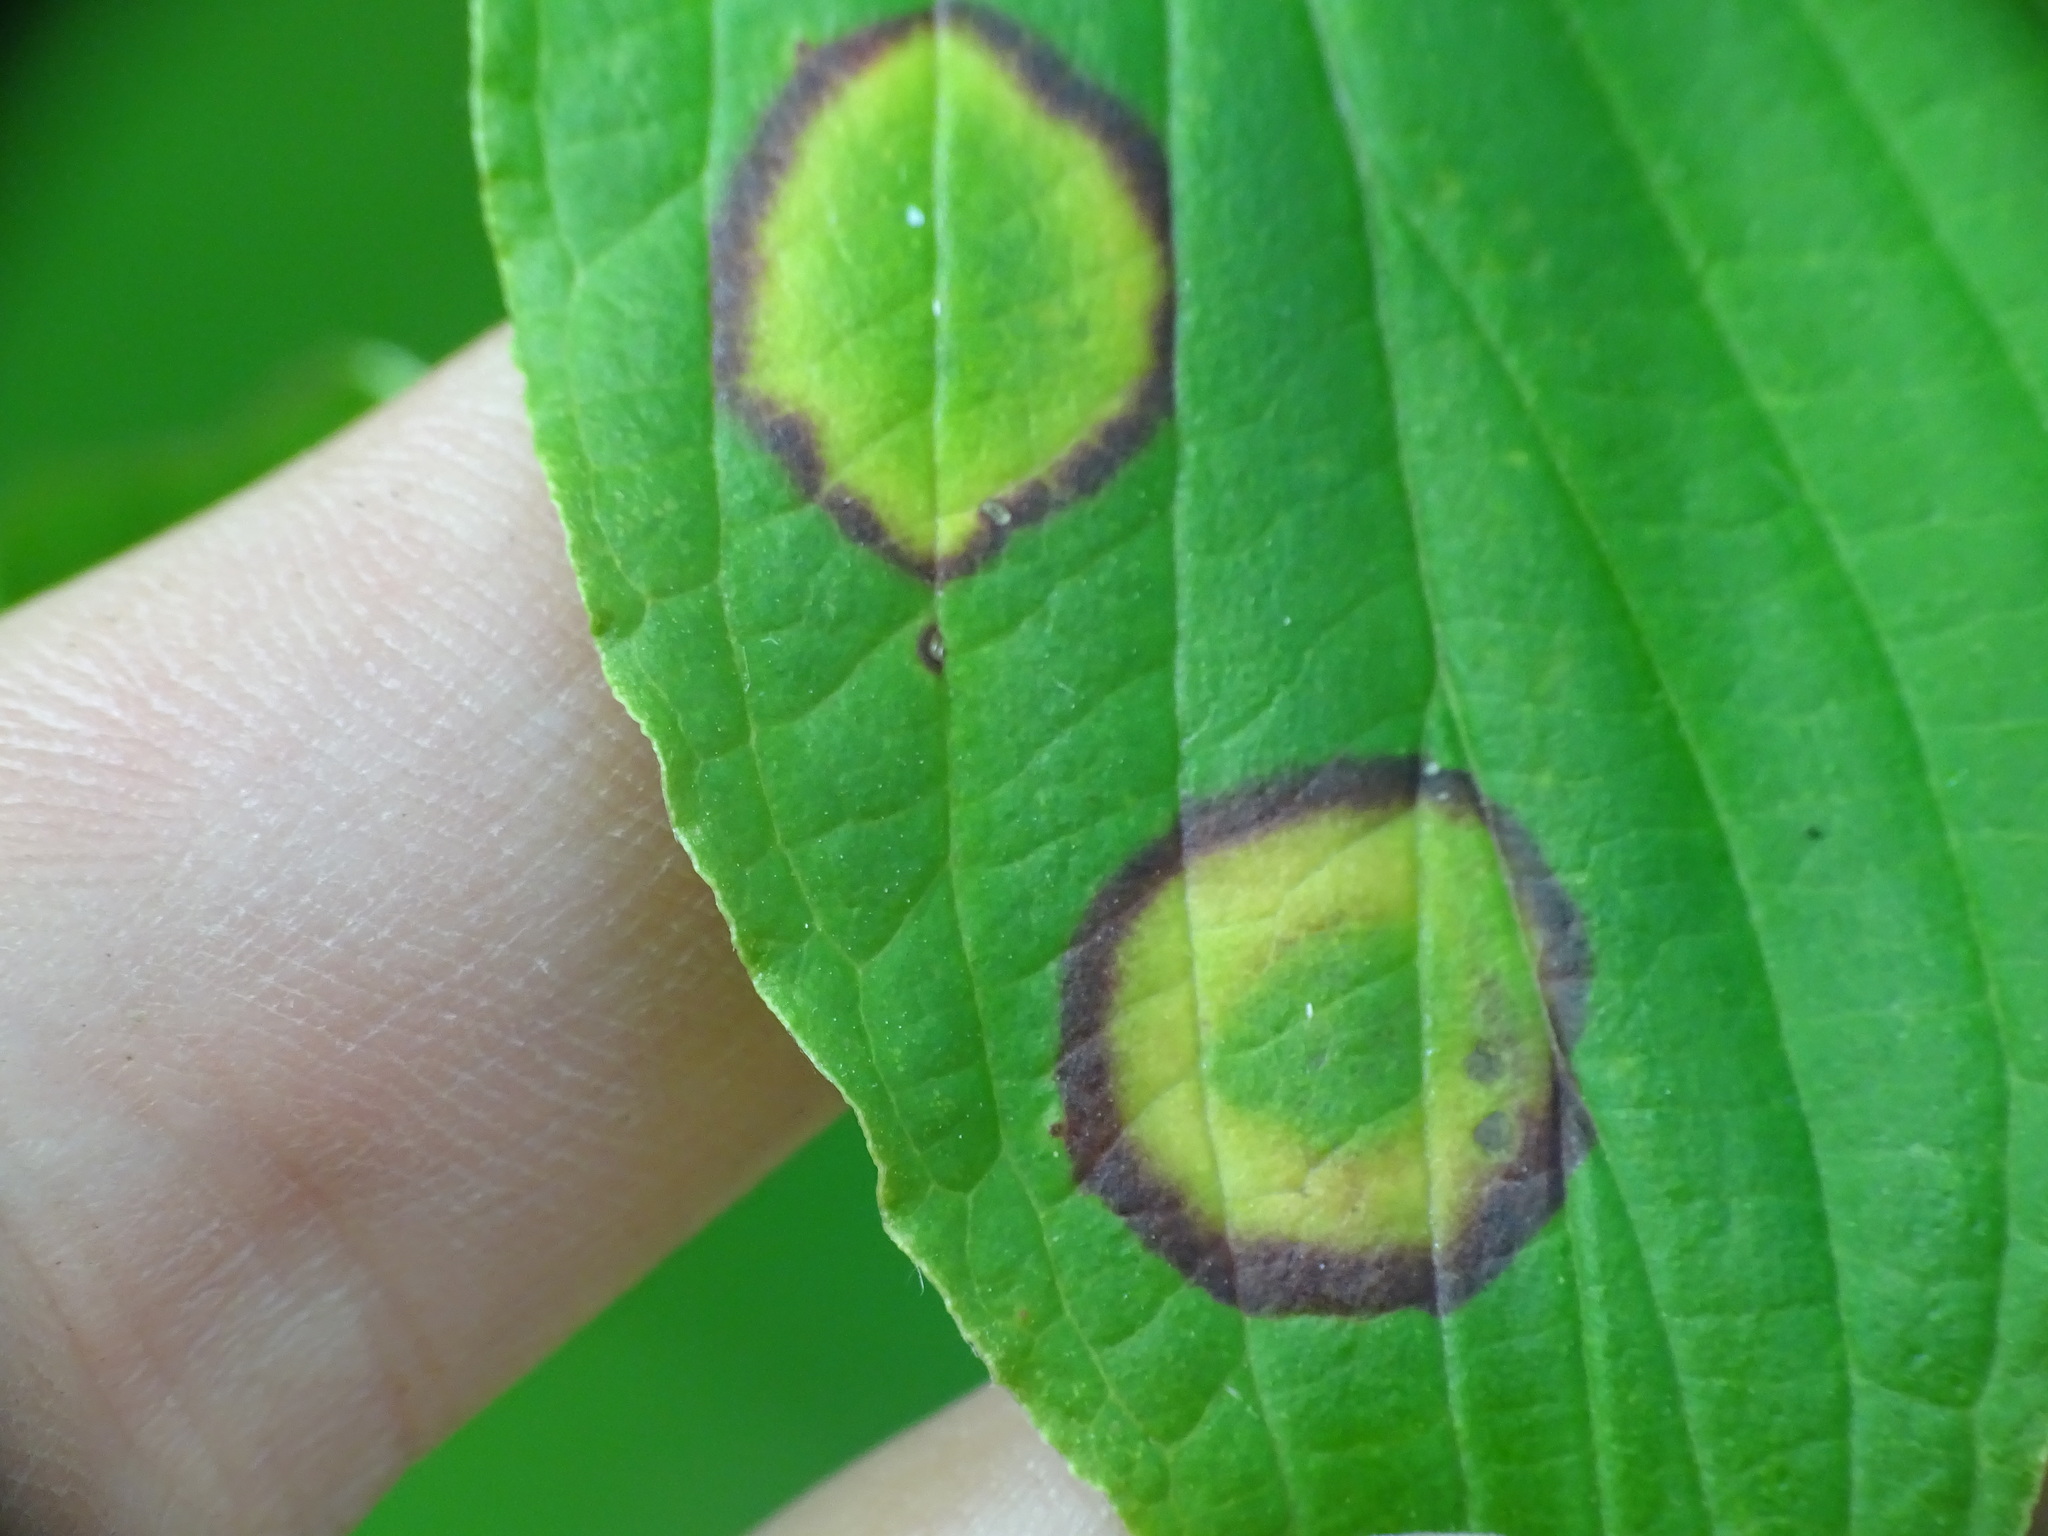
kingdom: Animalia
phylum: Arthropoda
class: Insecta
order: Diptera
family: Cecidomyiidae
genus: Parallelodiplosis
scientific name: Parallelodiplosis subtruncata
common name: Dogwood eyespot gall midge
